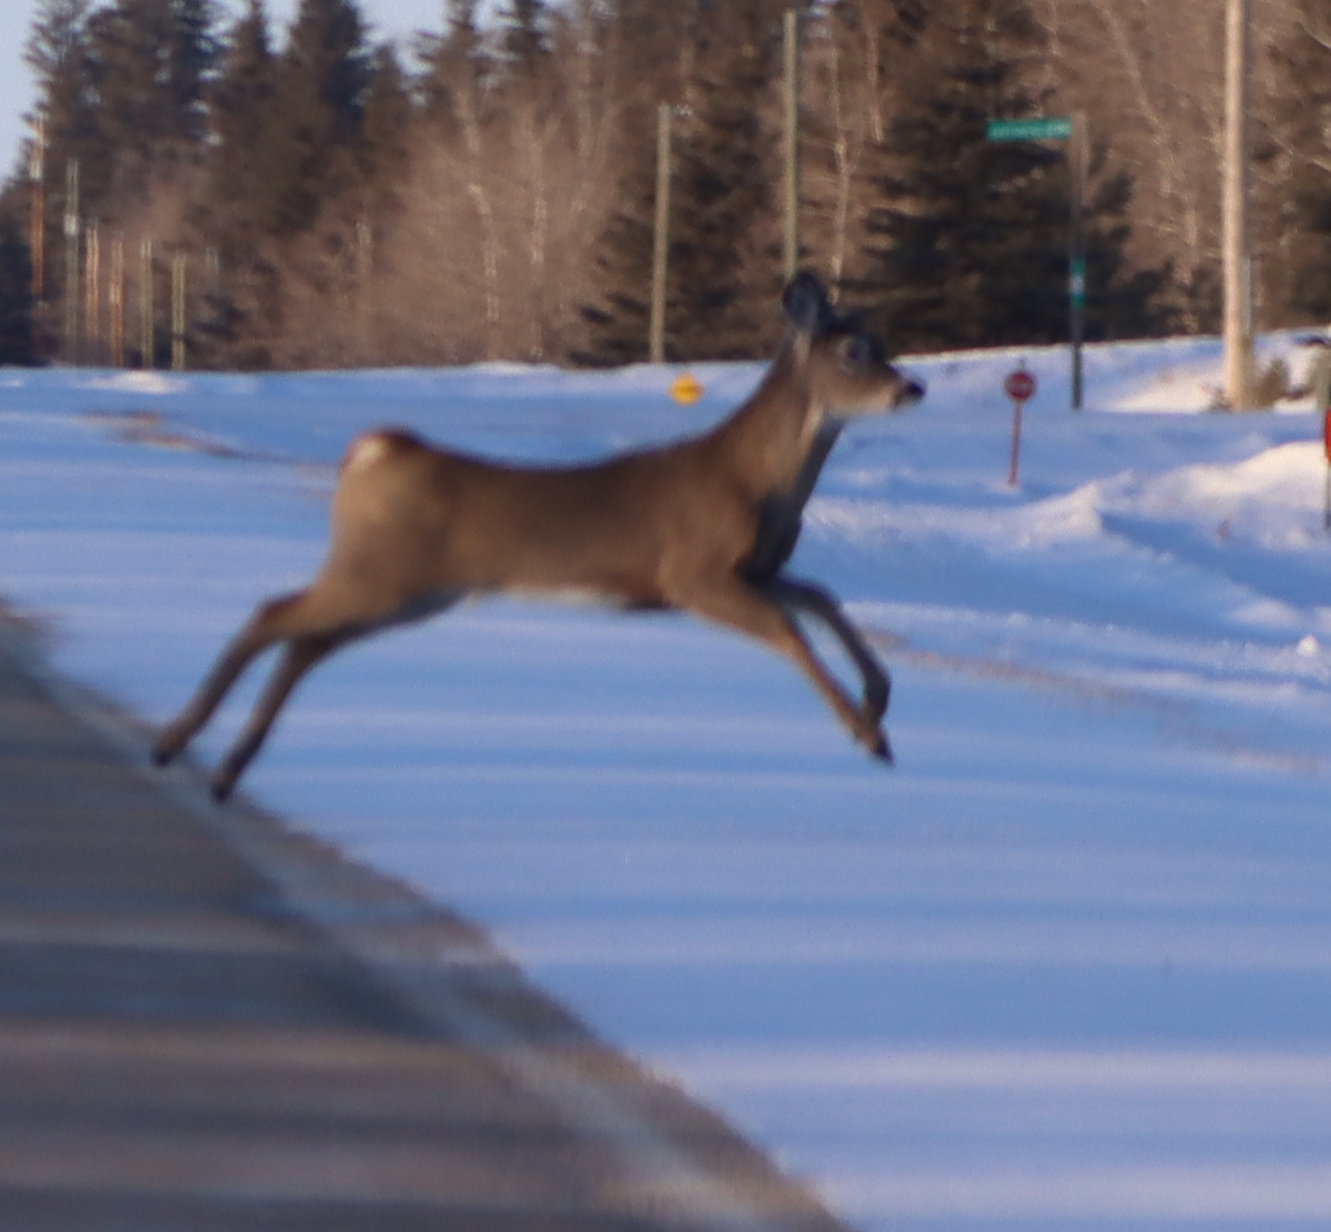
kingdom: Animalia
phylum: Chordata
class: Mammalia
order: Artiodactyla
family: Cervidae
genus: Odocoileus
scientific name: Odocoileus virginianus
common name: White-tailed deer
